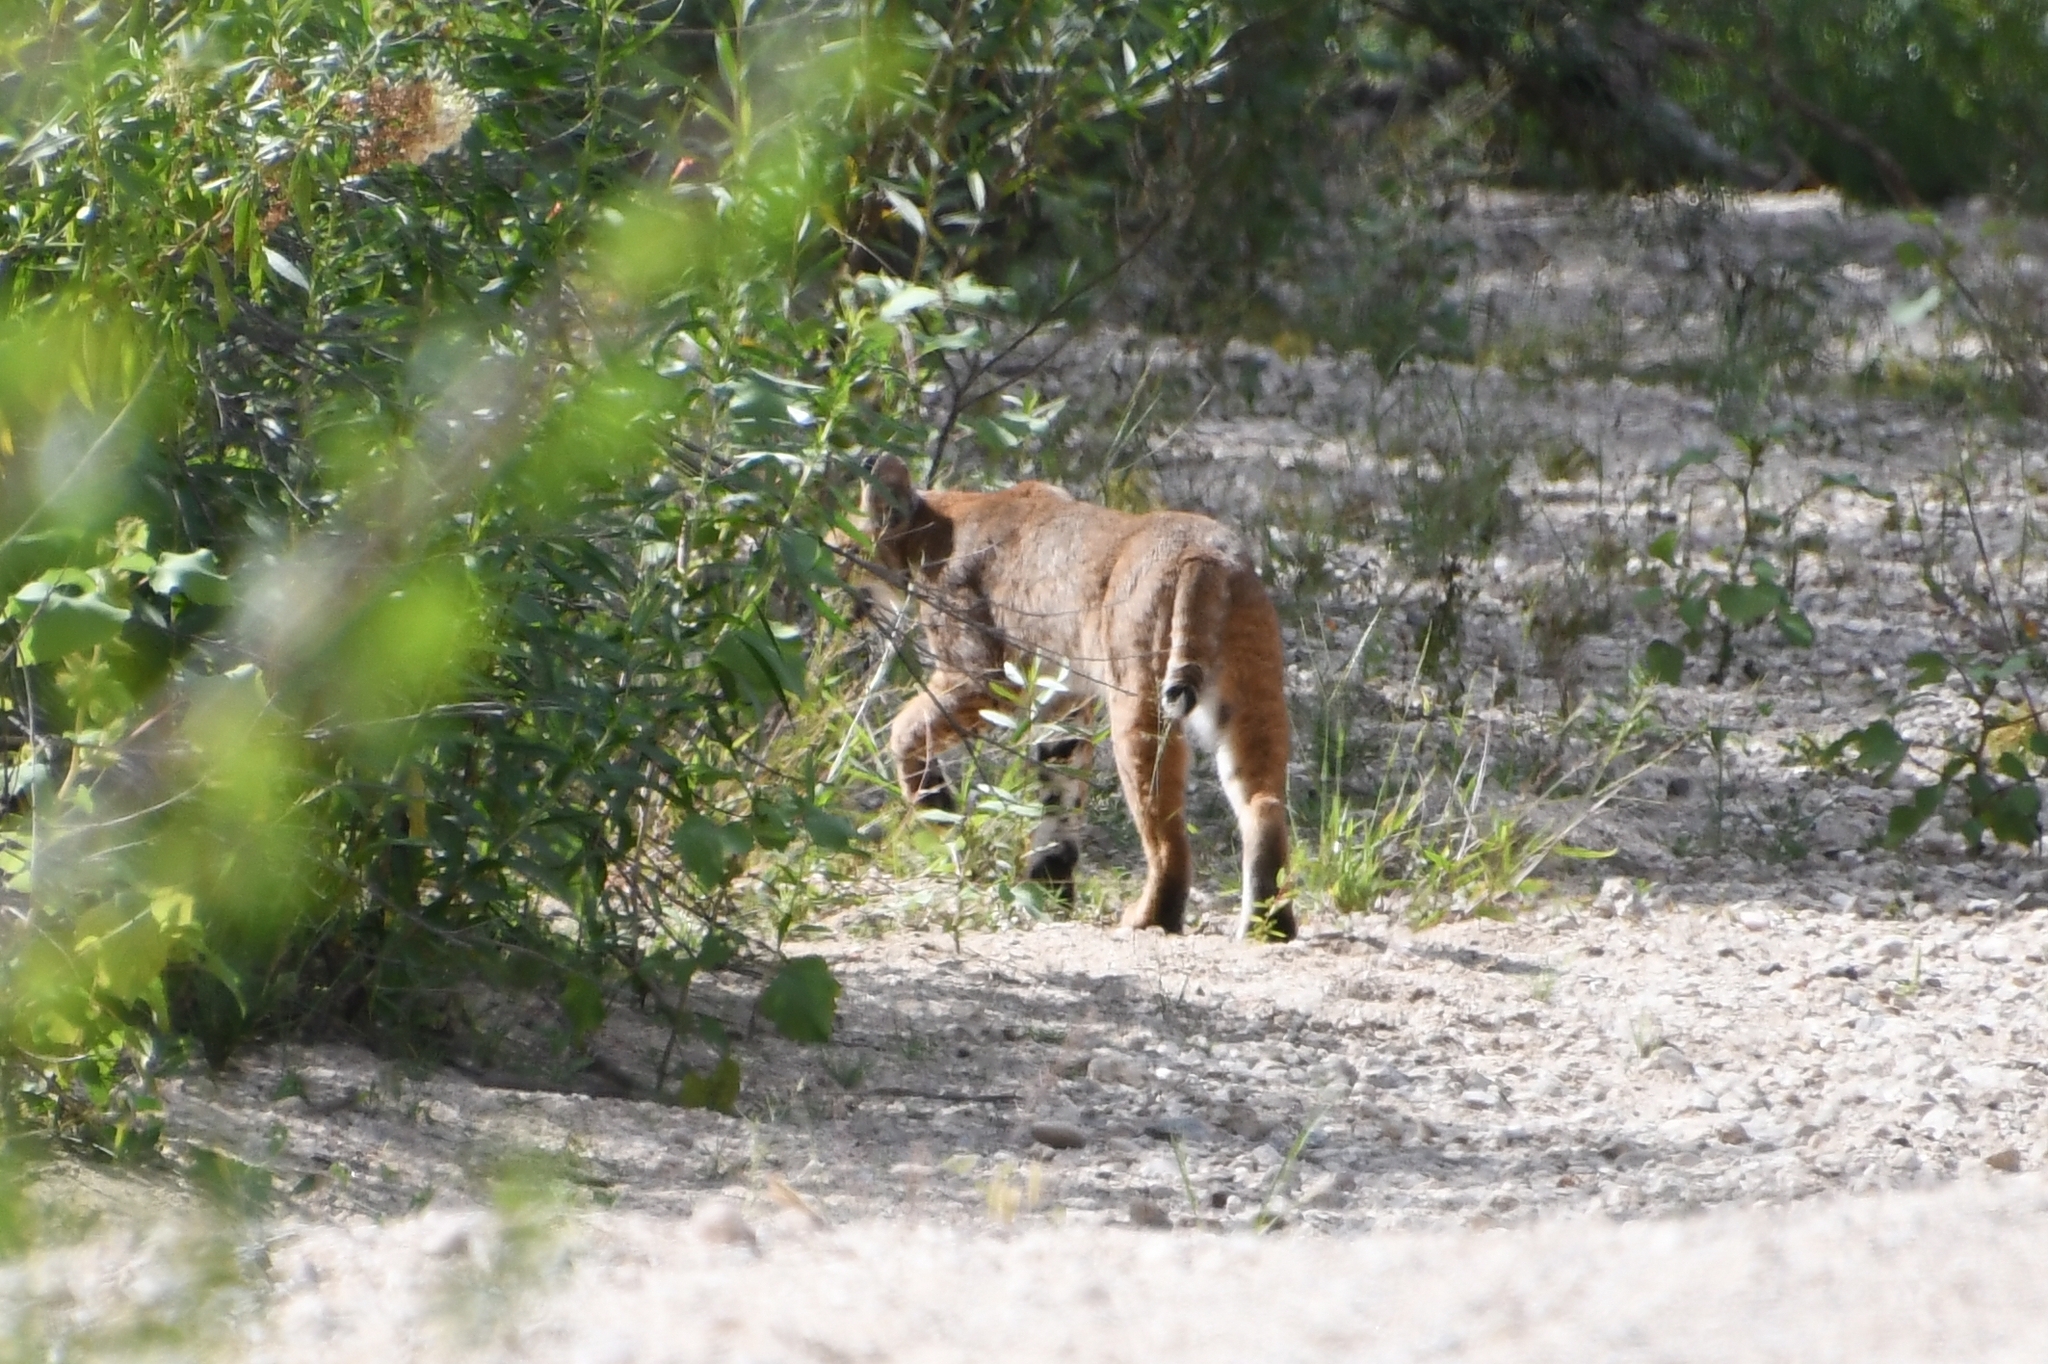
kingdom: Animalia
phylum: Chordata
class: Mammalia
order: Carnivora
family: Felidae
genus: Lynx
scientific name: Lynx rufus
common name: Bobcat
